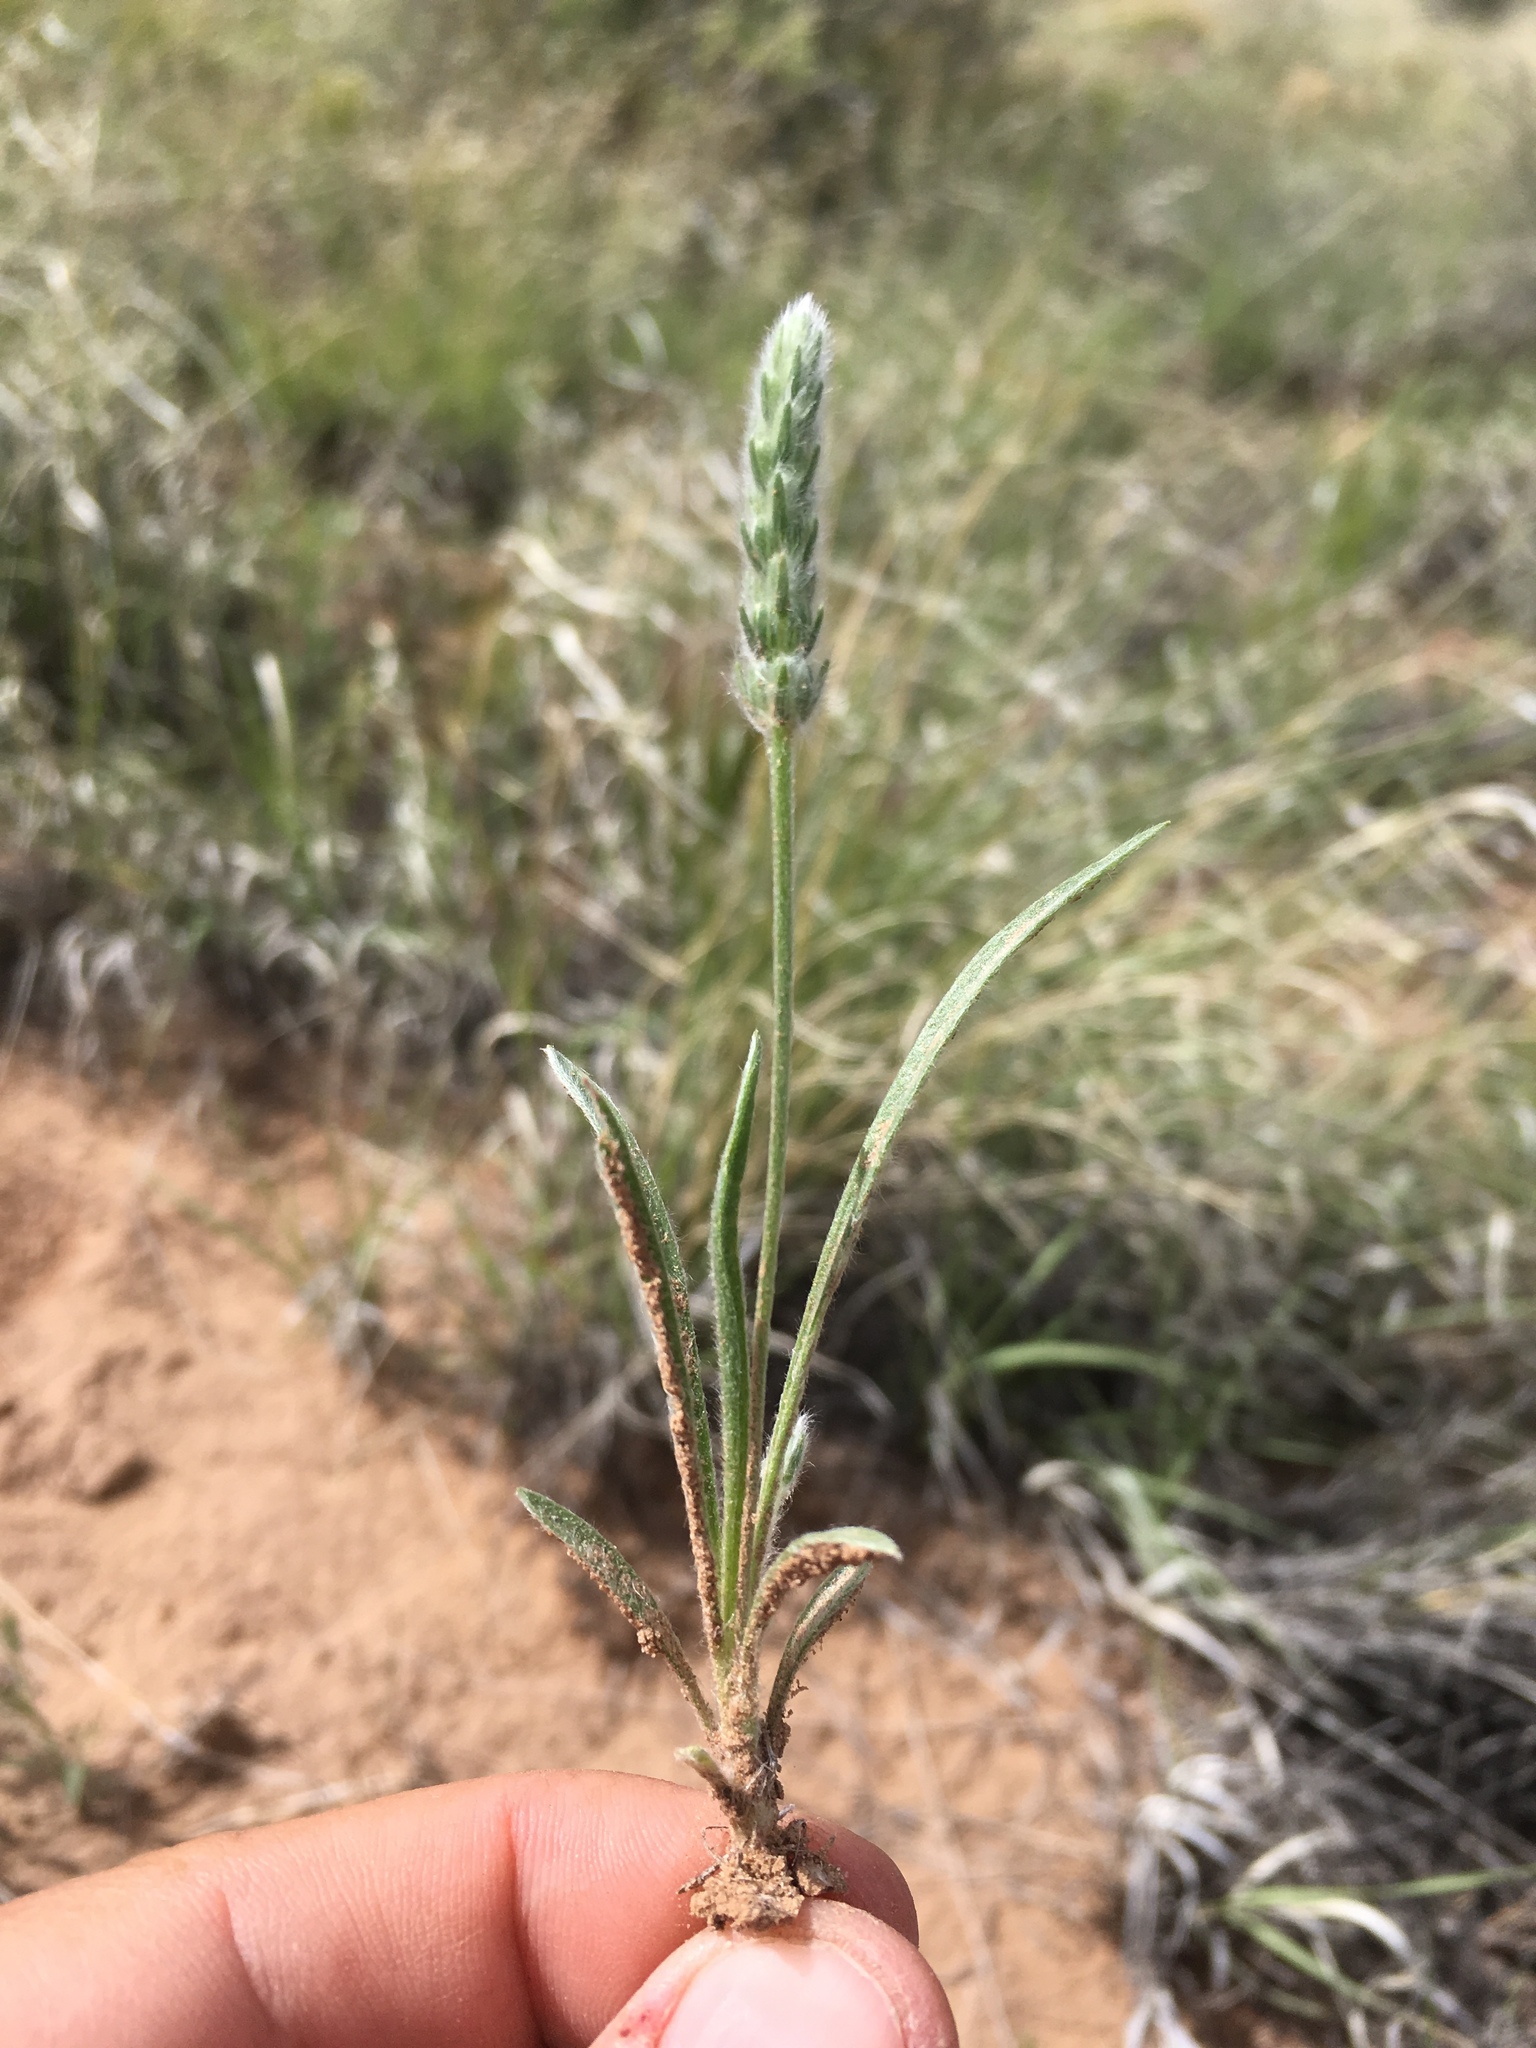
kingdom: Plantae
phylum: Tracheophyta
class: Magnoliopsida
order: Lamiales
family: Plantaginaceae
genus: Plantago
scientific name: Plantago patagonica
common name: Patagonia indian-wheat
